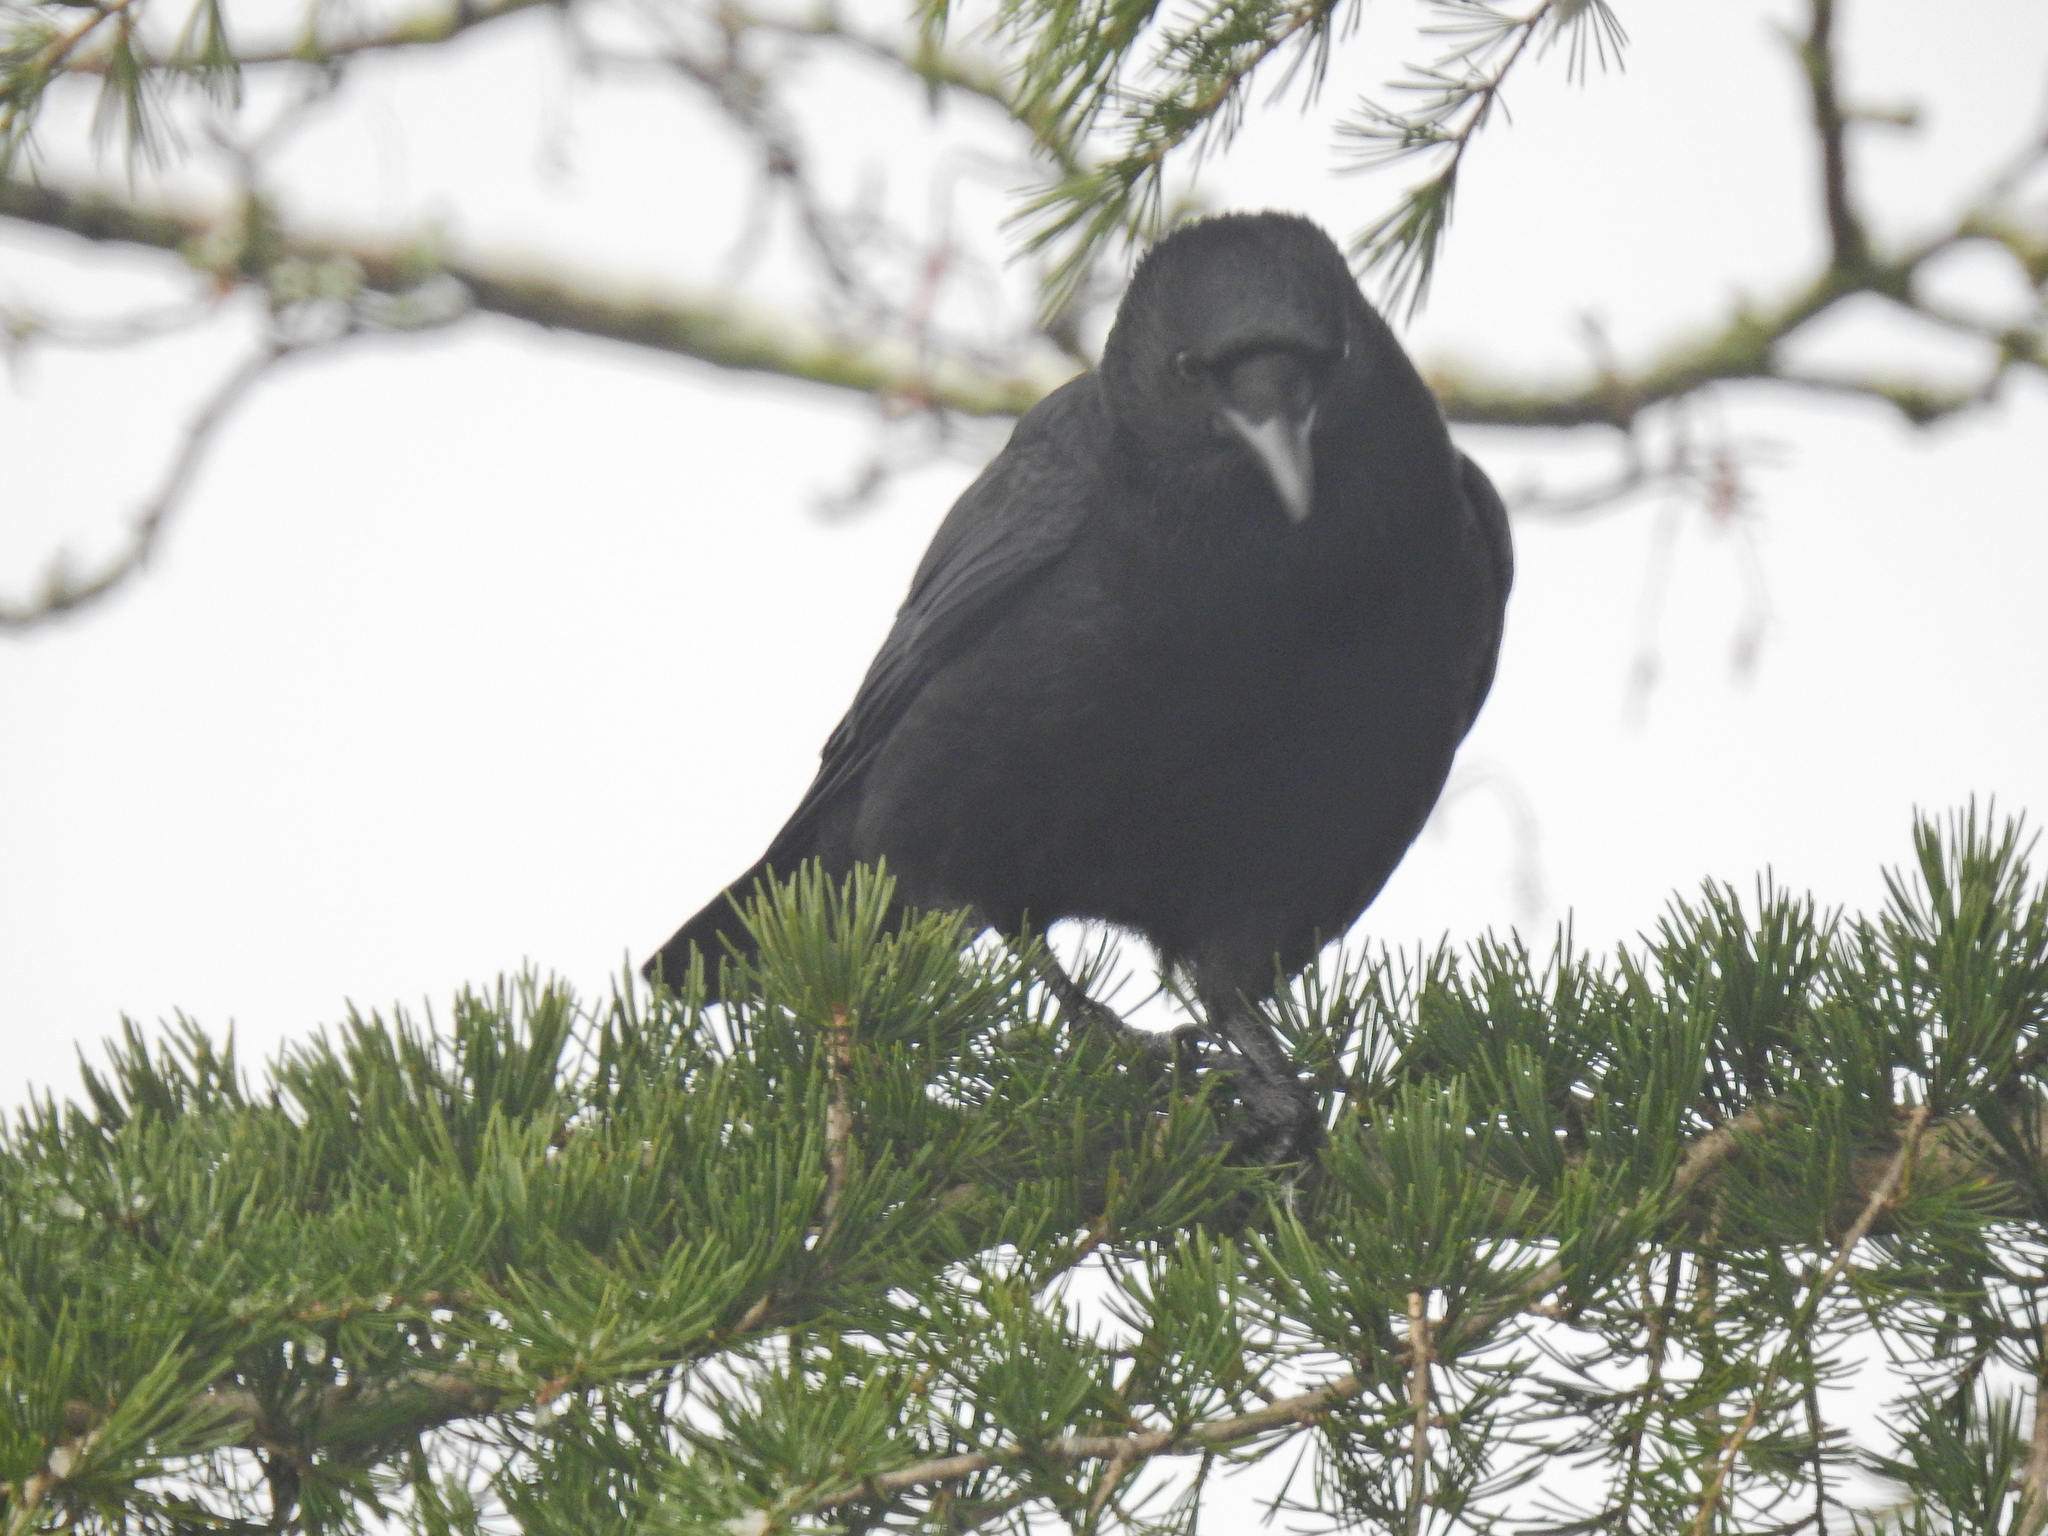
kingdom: Animalia
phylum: Chordata
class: Aves
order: Passeriformes
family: Corvidae
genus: Corvus
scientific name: Corvus corone
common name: Carrion crow
